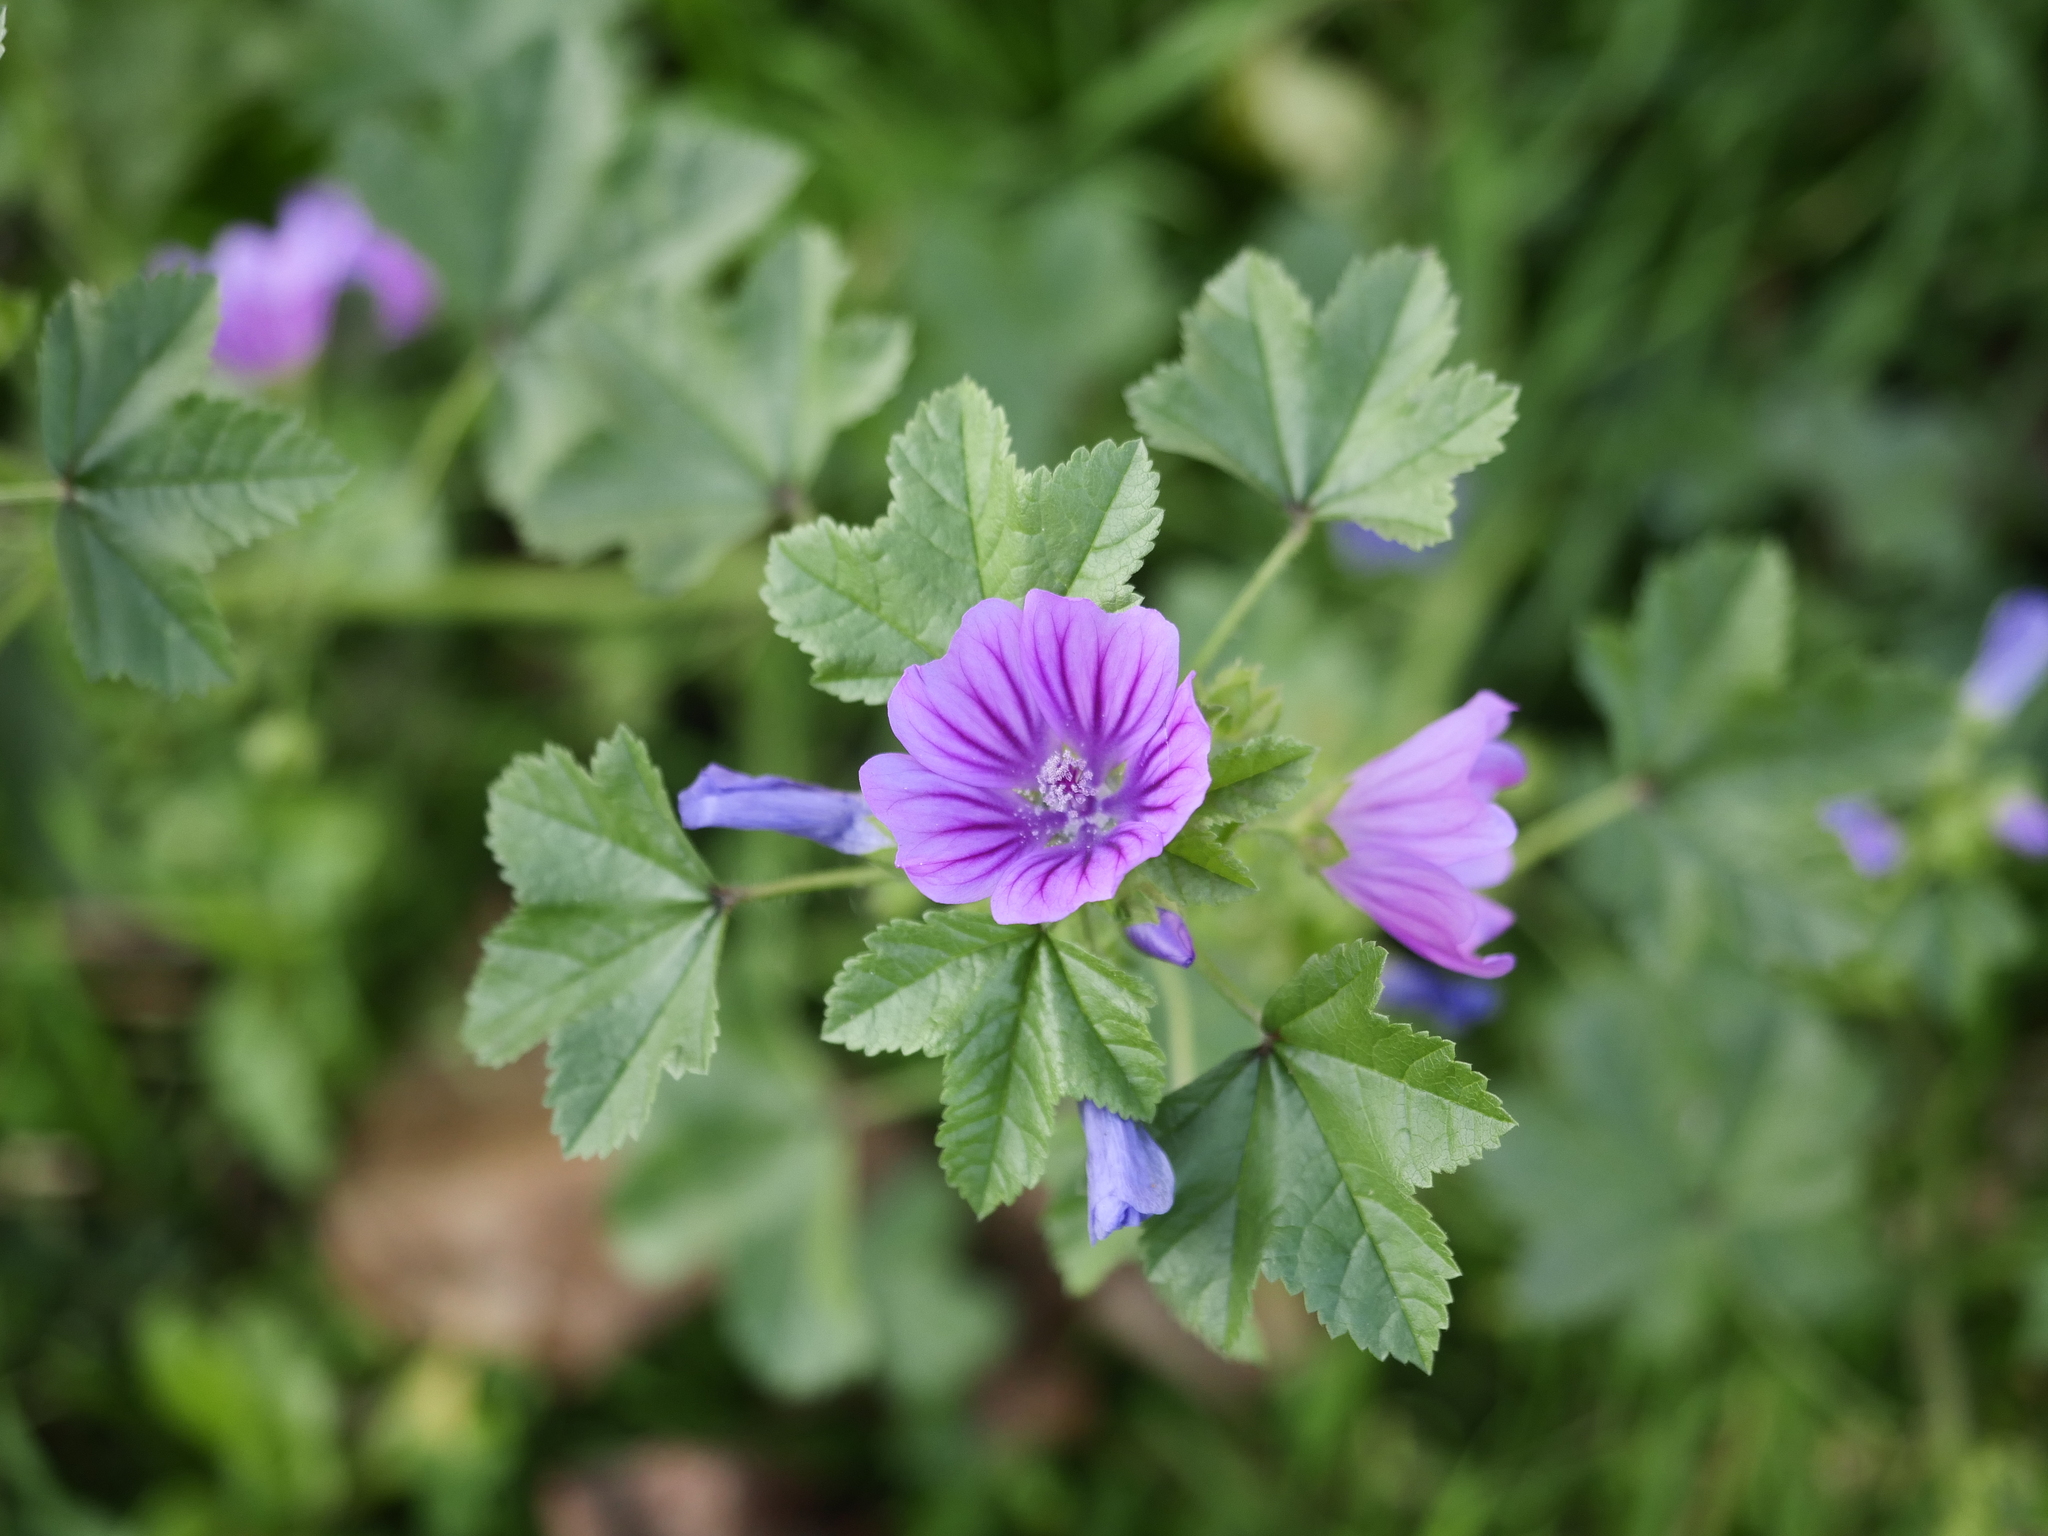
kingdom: Plantae
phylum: Tracheophyta
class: Magnoliopsida
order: Malvales
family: Malvaceae
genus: Malva
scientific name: Malva sylvestris
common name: Common mallow
